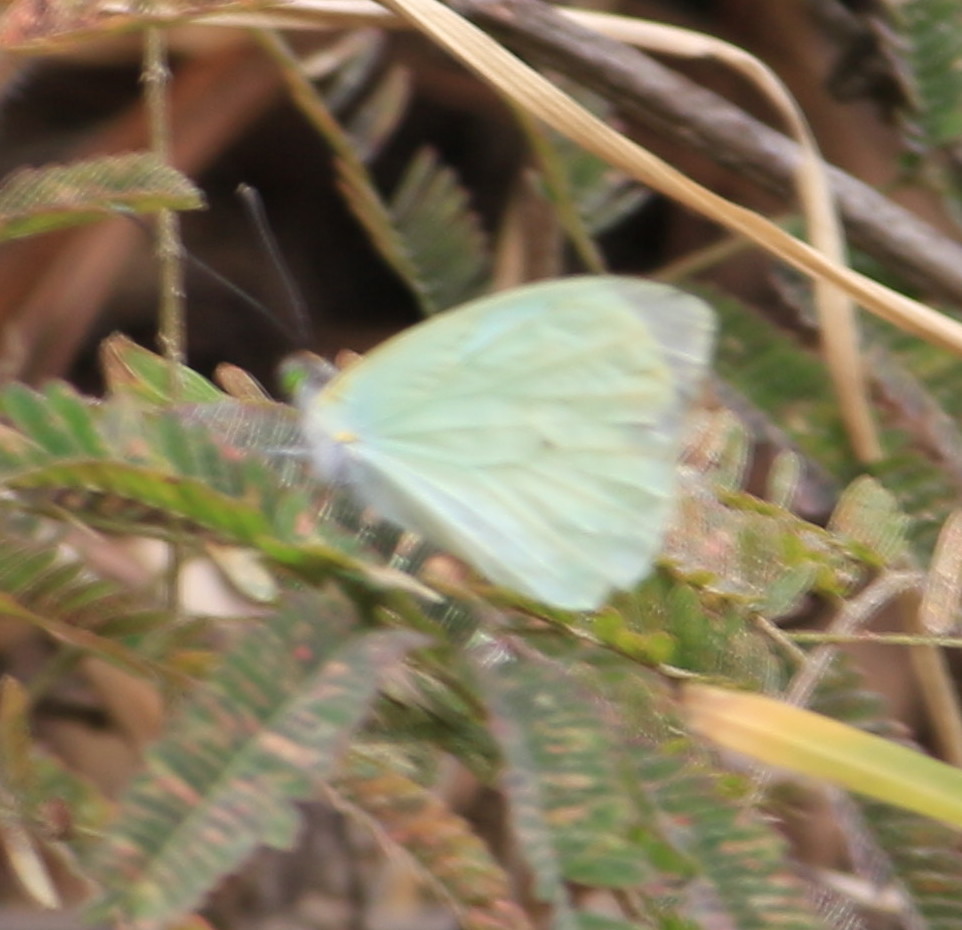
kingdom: Animalia
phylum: Arthropoda
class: Insecta
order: Lepidoptera
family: Pieridae
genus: Leptophobia
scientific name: Leptophobia aripa
